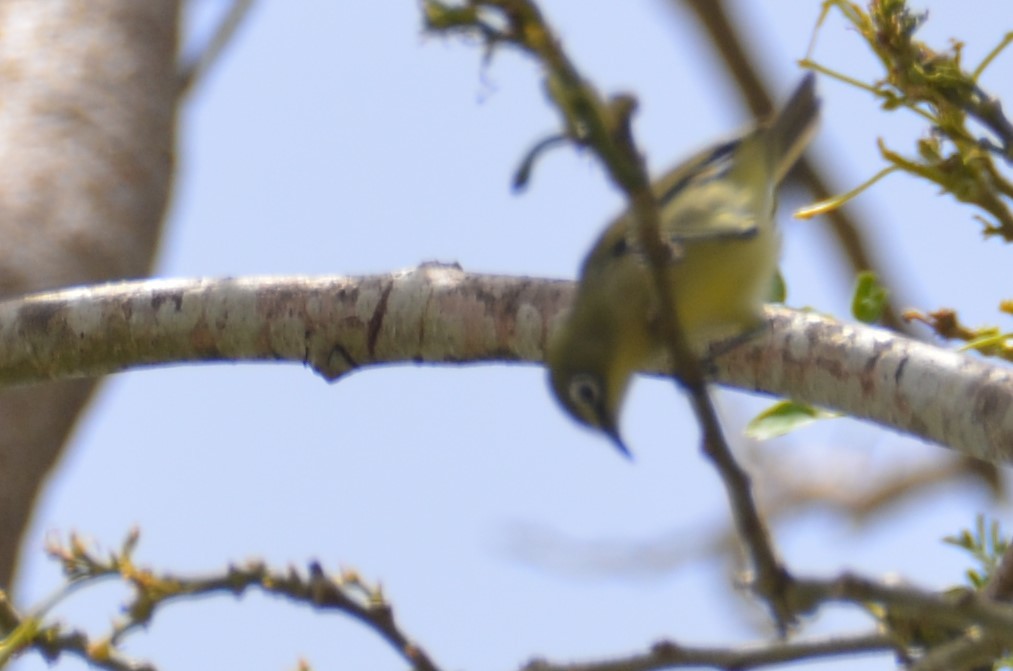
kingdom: Animalia
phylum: Chordata
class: Aves
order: Passeriformes
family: Zosteropidae
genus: Zosterops
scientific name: Zosterops conspicillatus
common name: Bridled white-eye
